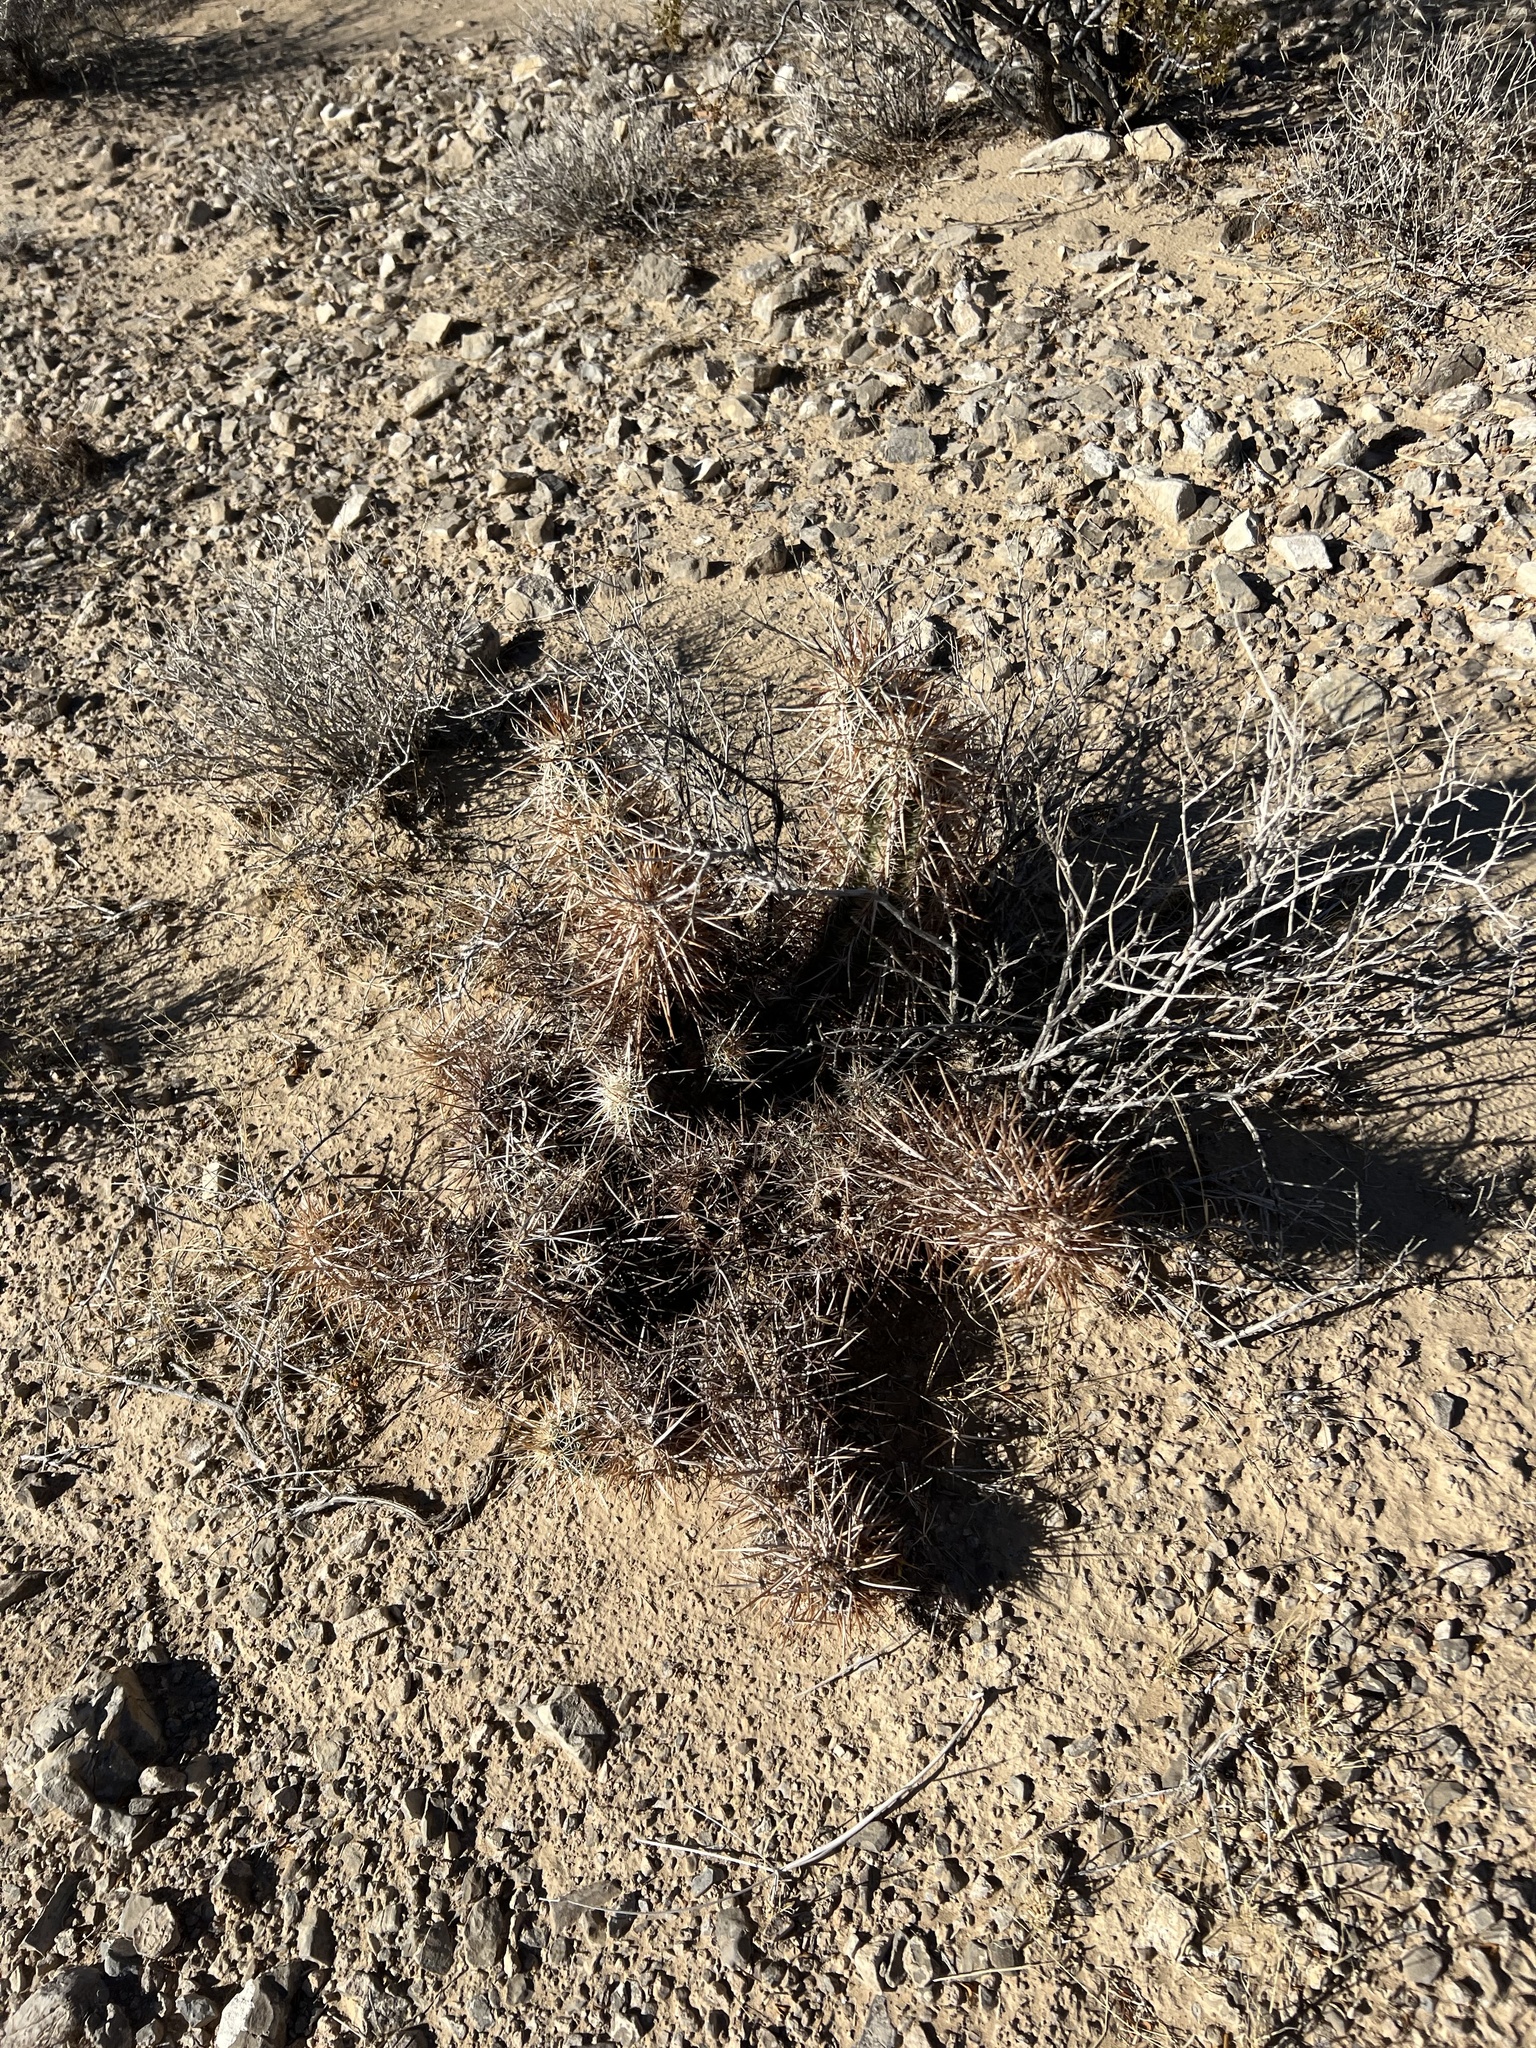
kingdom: Plantae
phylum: Tracheophyta
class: Magnoliopsida
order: Caryophyllales
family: Cactaceae
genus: Echinocereus
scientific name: Echinocereus engelmannii
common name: Engelmann's hedgehog cactus
